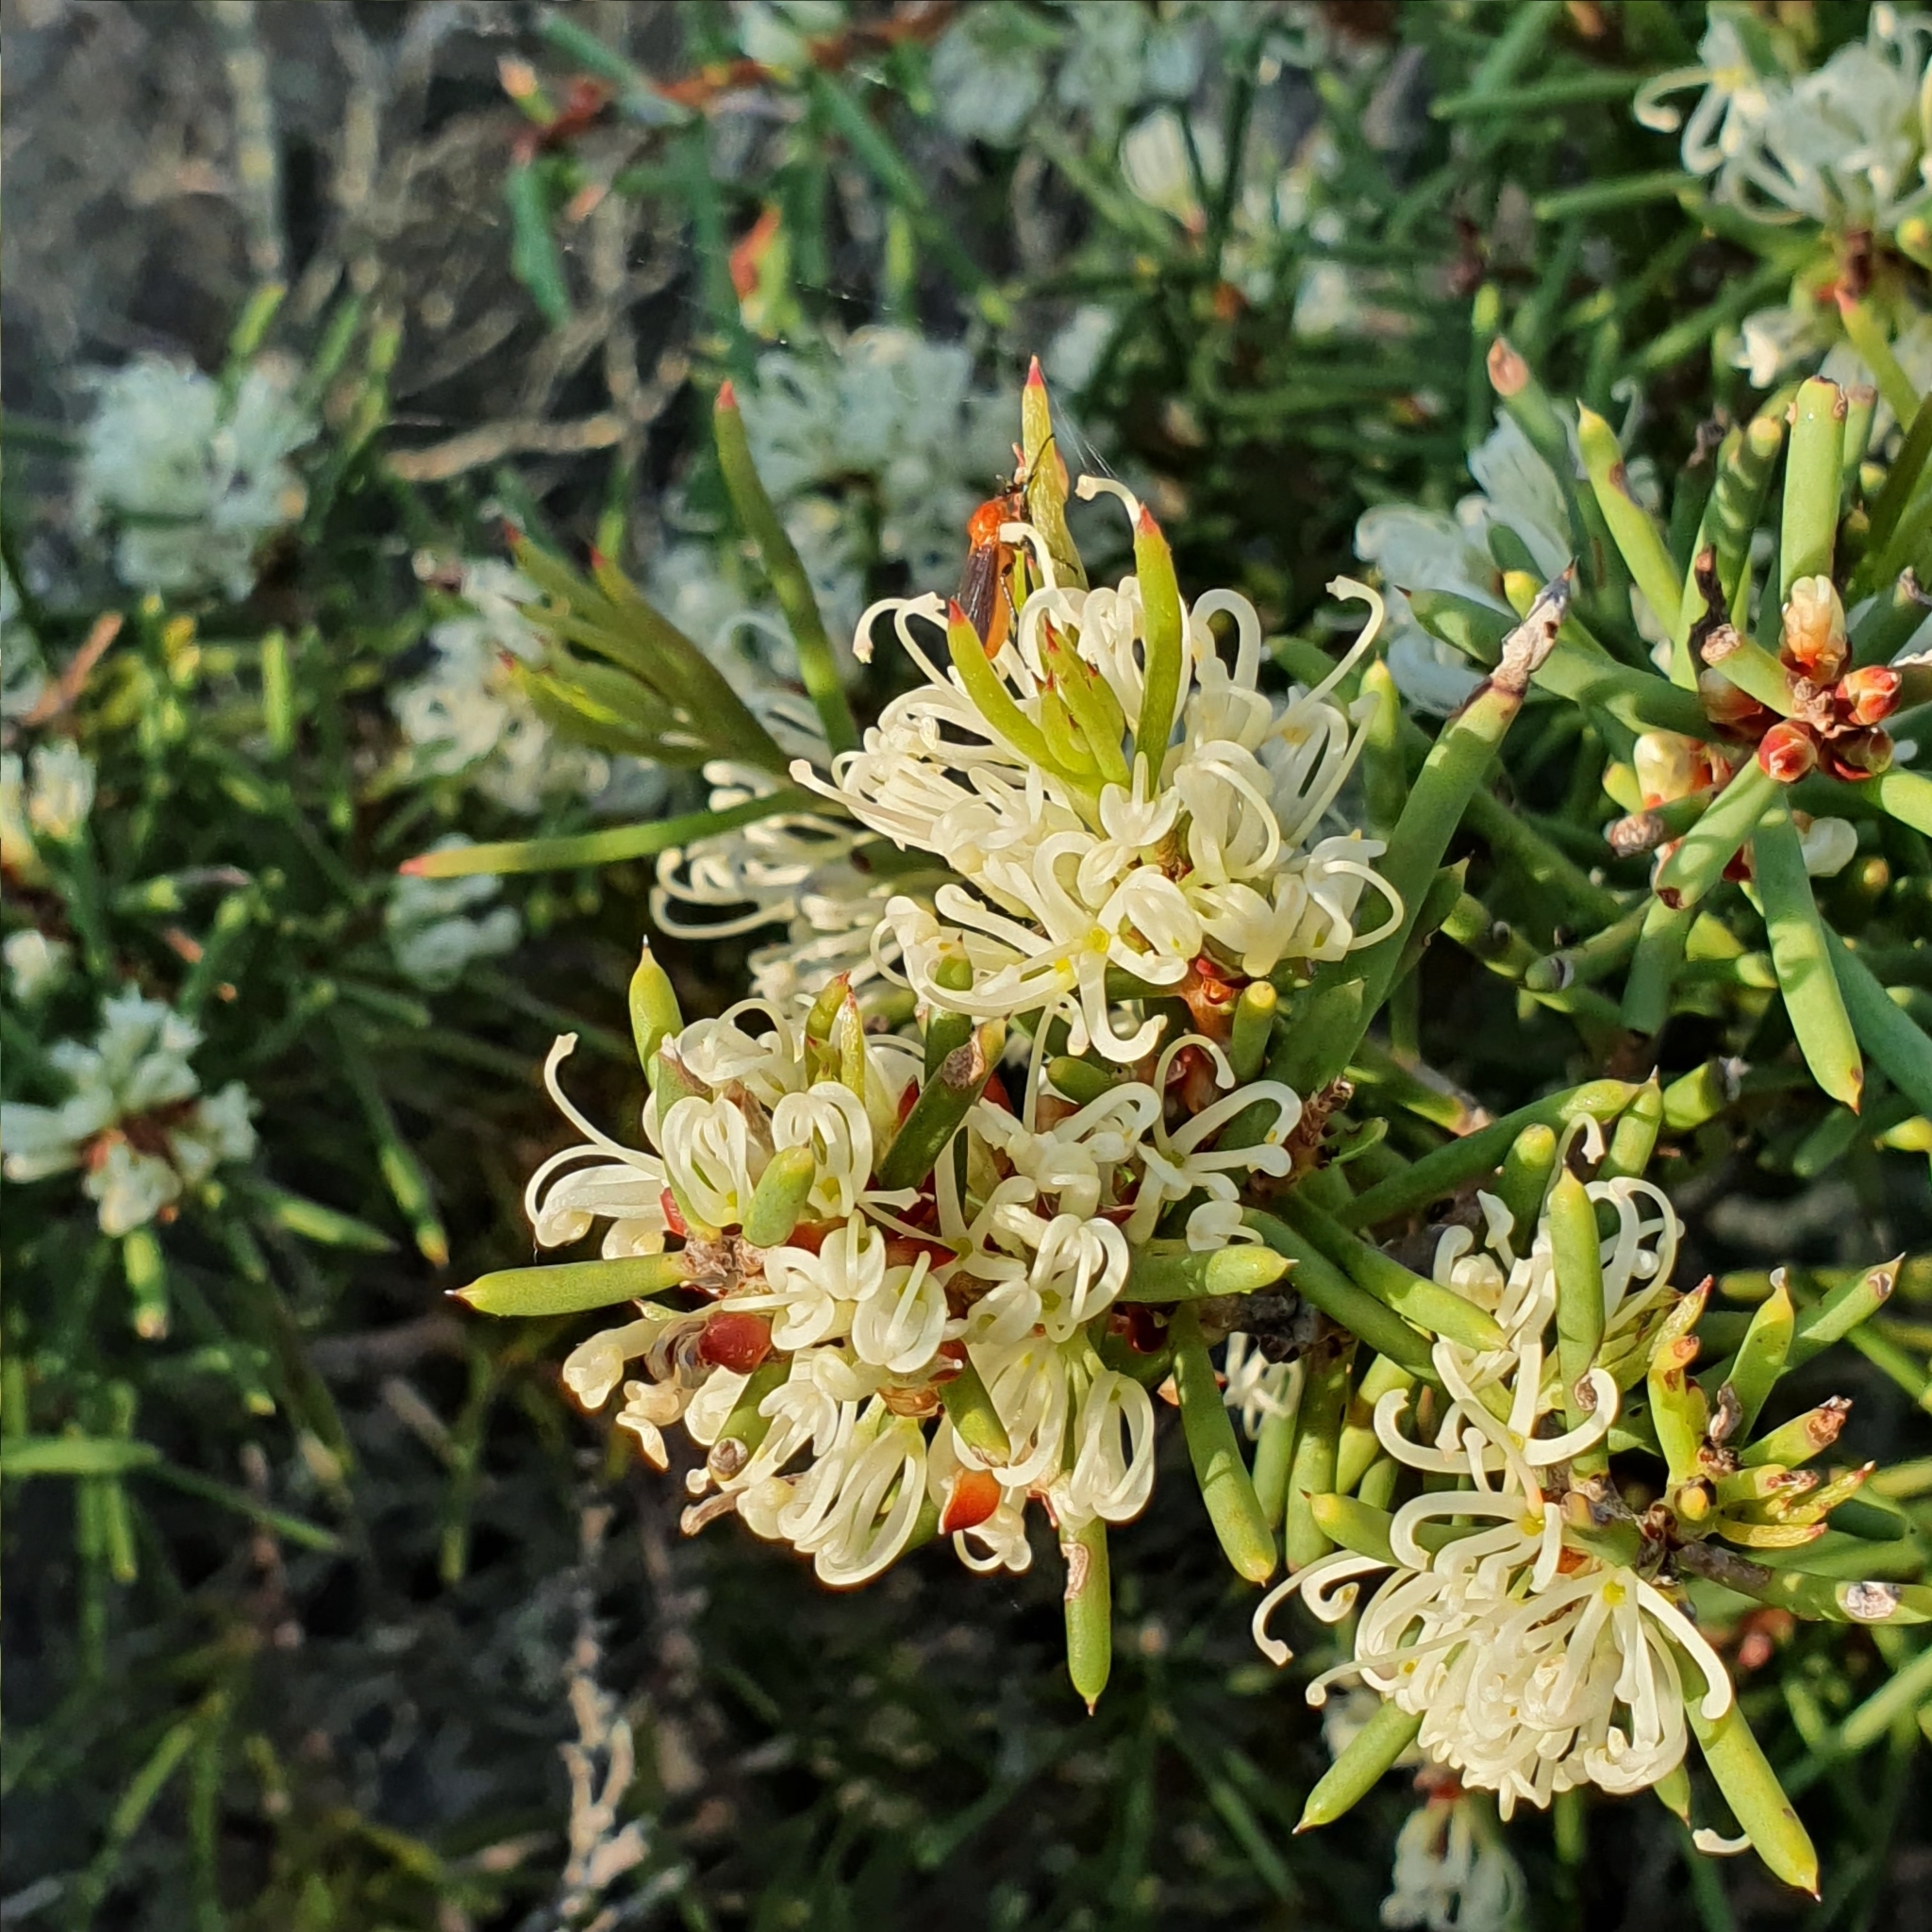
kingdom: Plantae
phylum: Tracheophyta
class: Magnoliopsida
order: Proteales
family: Proteaceae
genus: Hakea
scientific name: Hakea teretifolia
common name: Dagger hakea
